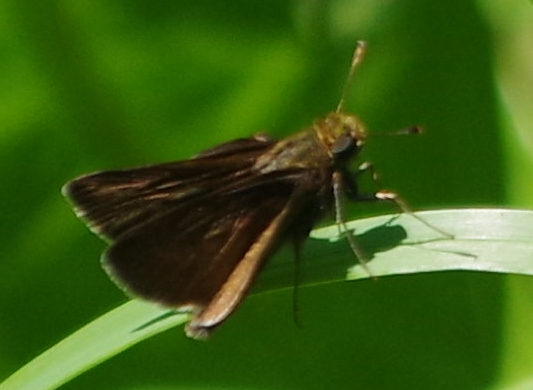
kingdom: Animalia
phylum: Arthropoda
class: Insecta
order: Lepidoptera
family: Hesperiidae
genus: Euphyes
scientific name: Euphyes vestris
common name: Dun skipper
